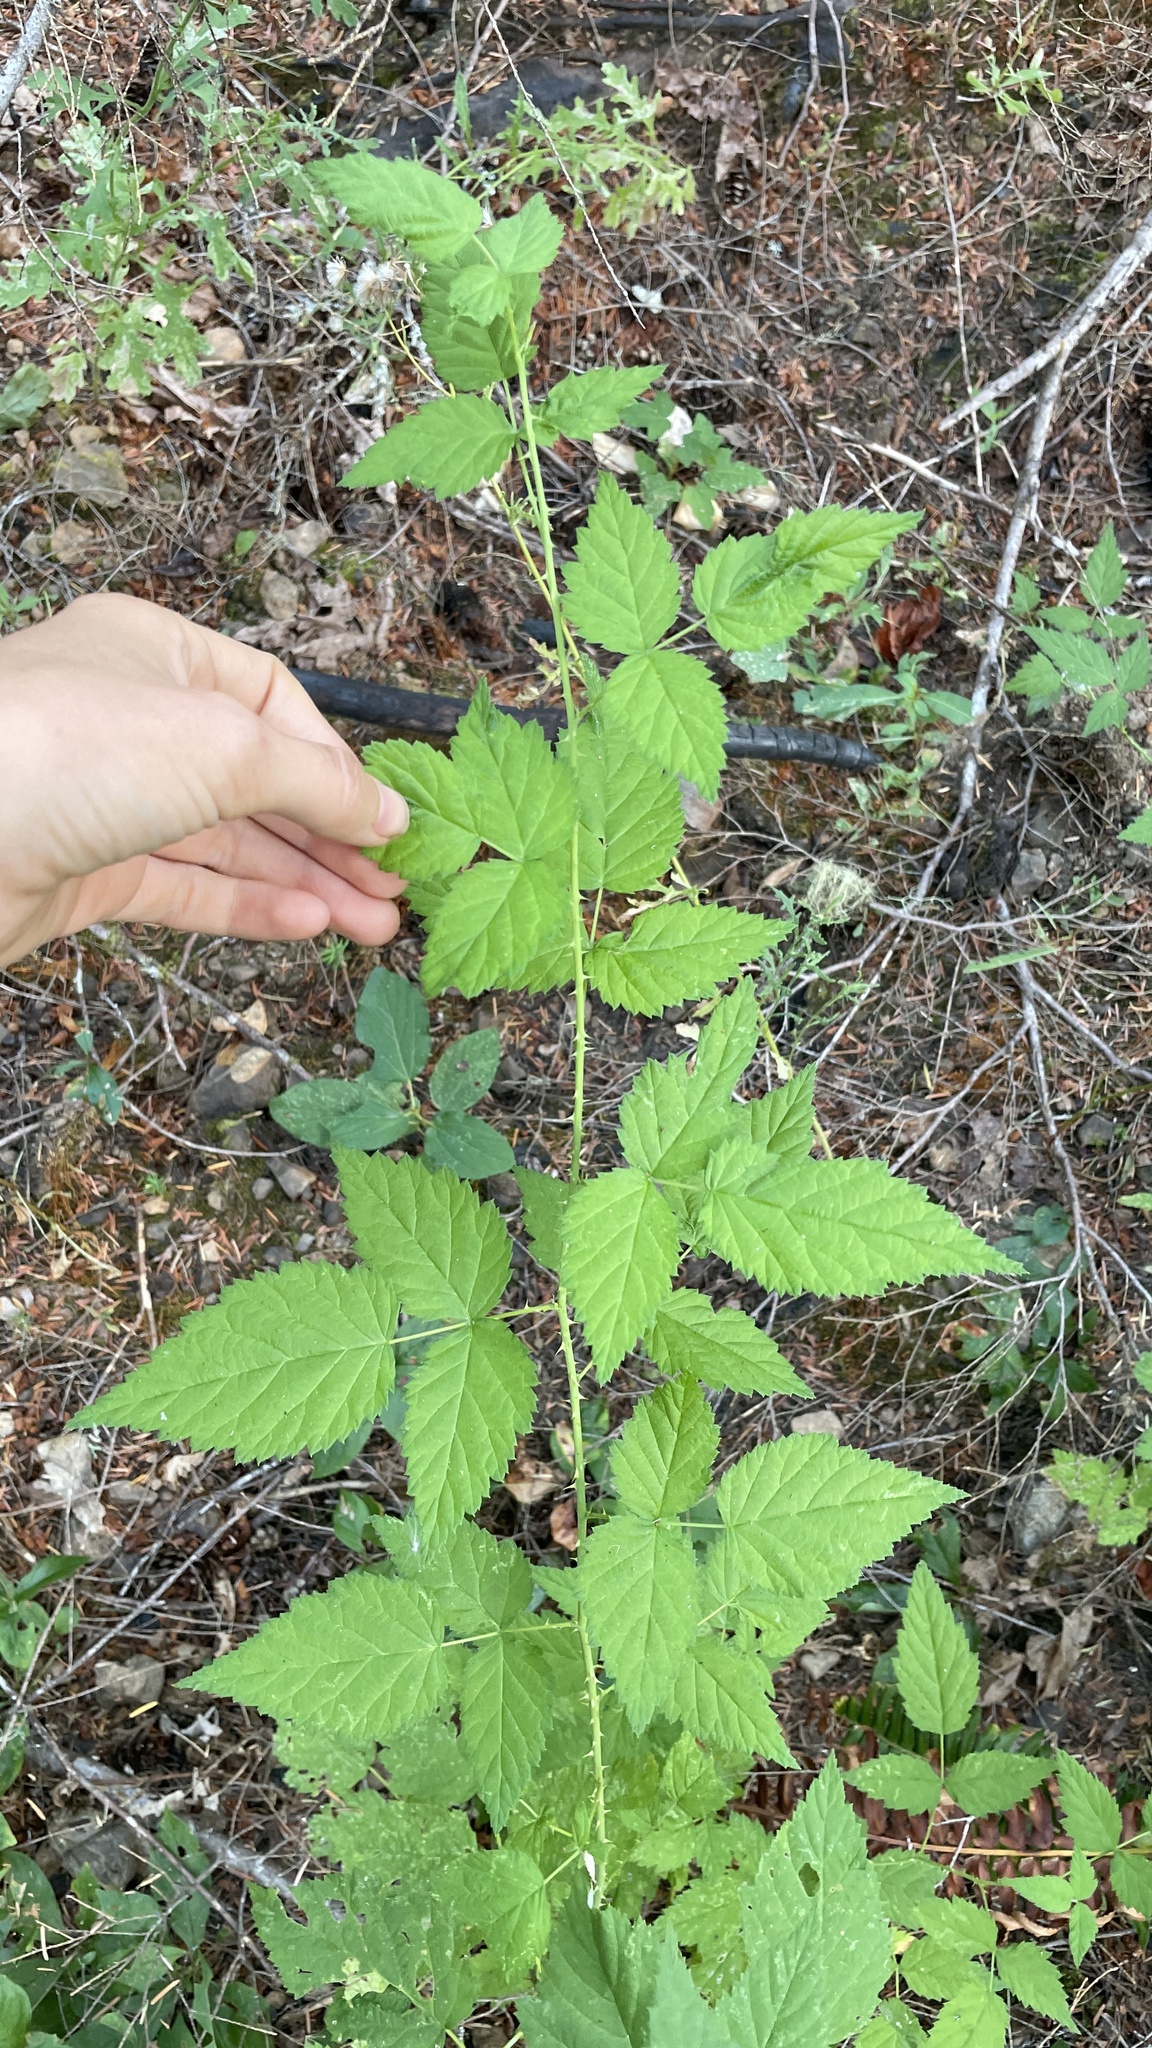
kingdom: Plantae
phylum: Tracheophyta
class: Magnoliopsida
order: Rosales
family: Rosaceae
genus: Rubus
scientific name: Rubus leucodermis
